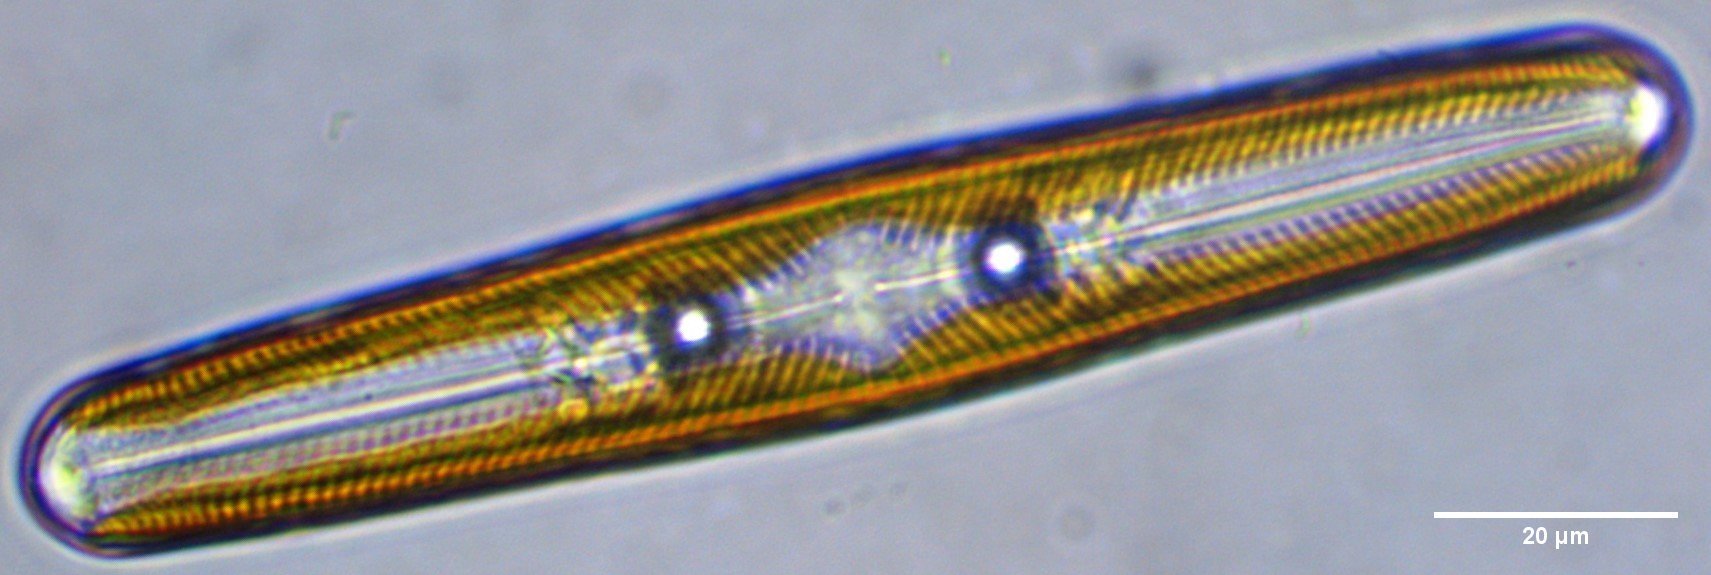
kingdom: Chromista
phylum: Ochrophyta
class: Bacillariophyceae
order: Naviculales
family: Naviculaceae
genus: Navicula
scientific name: Navicula oblonga
